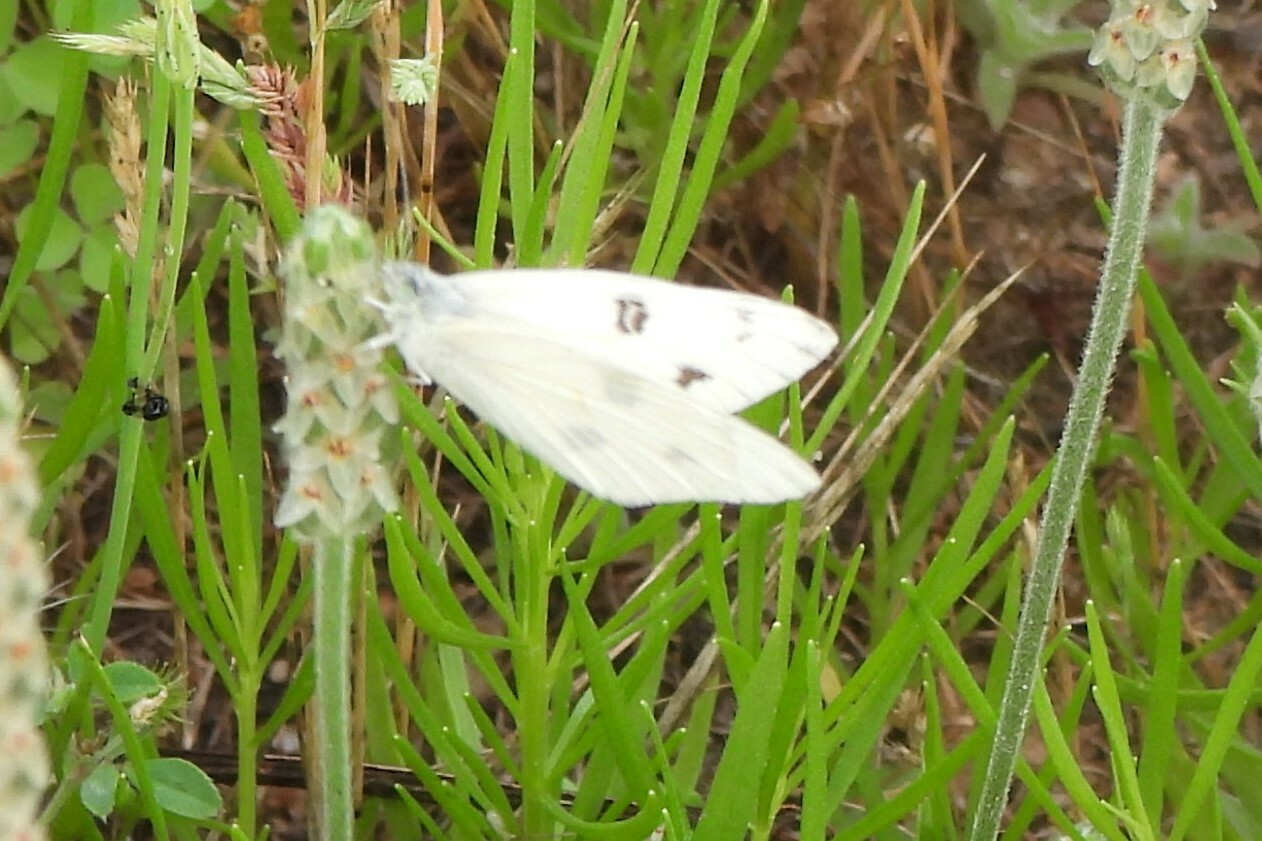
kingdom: Animalia
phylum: Arthropoda
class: Insecta
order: Lepidoptera
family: Pieridae
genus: Pontia
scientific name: Pontia protodice
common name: Checkered white
